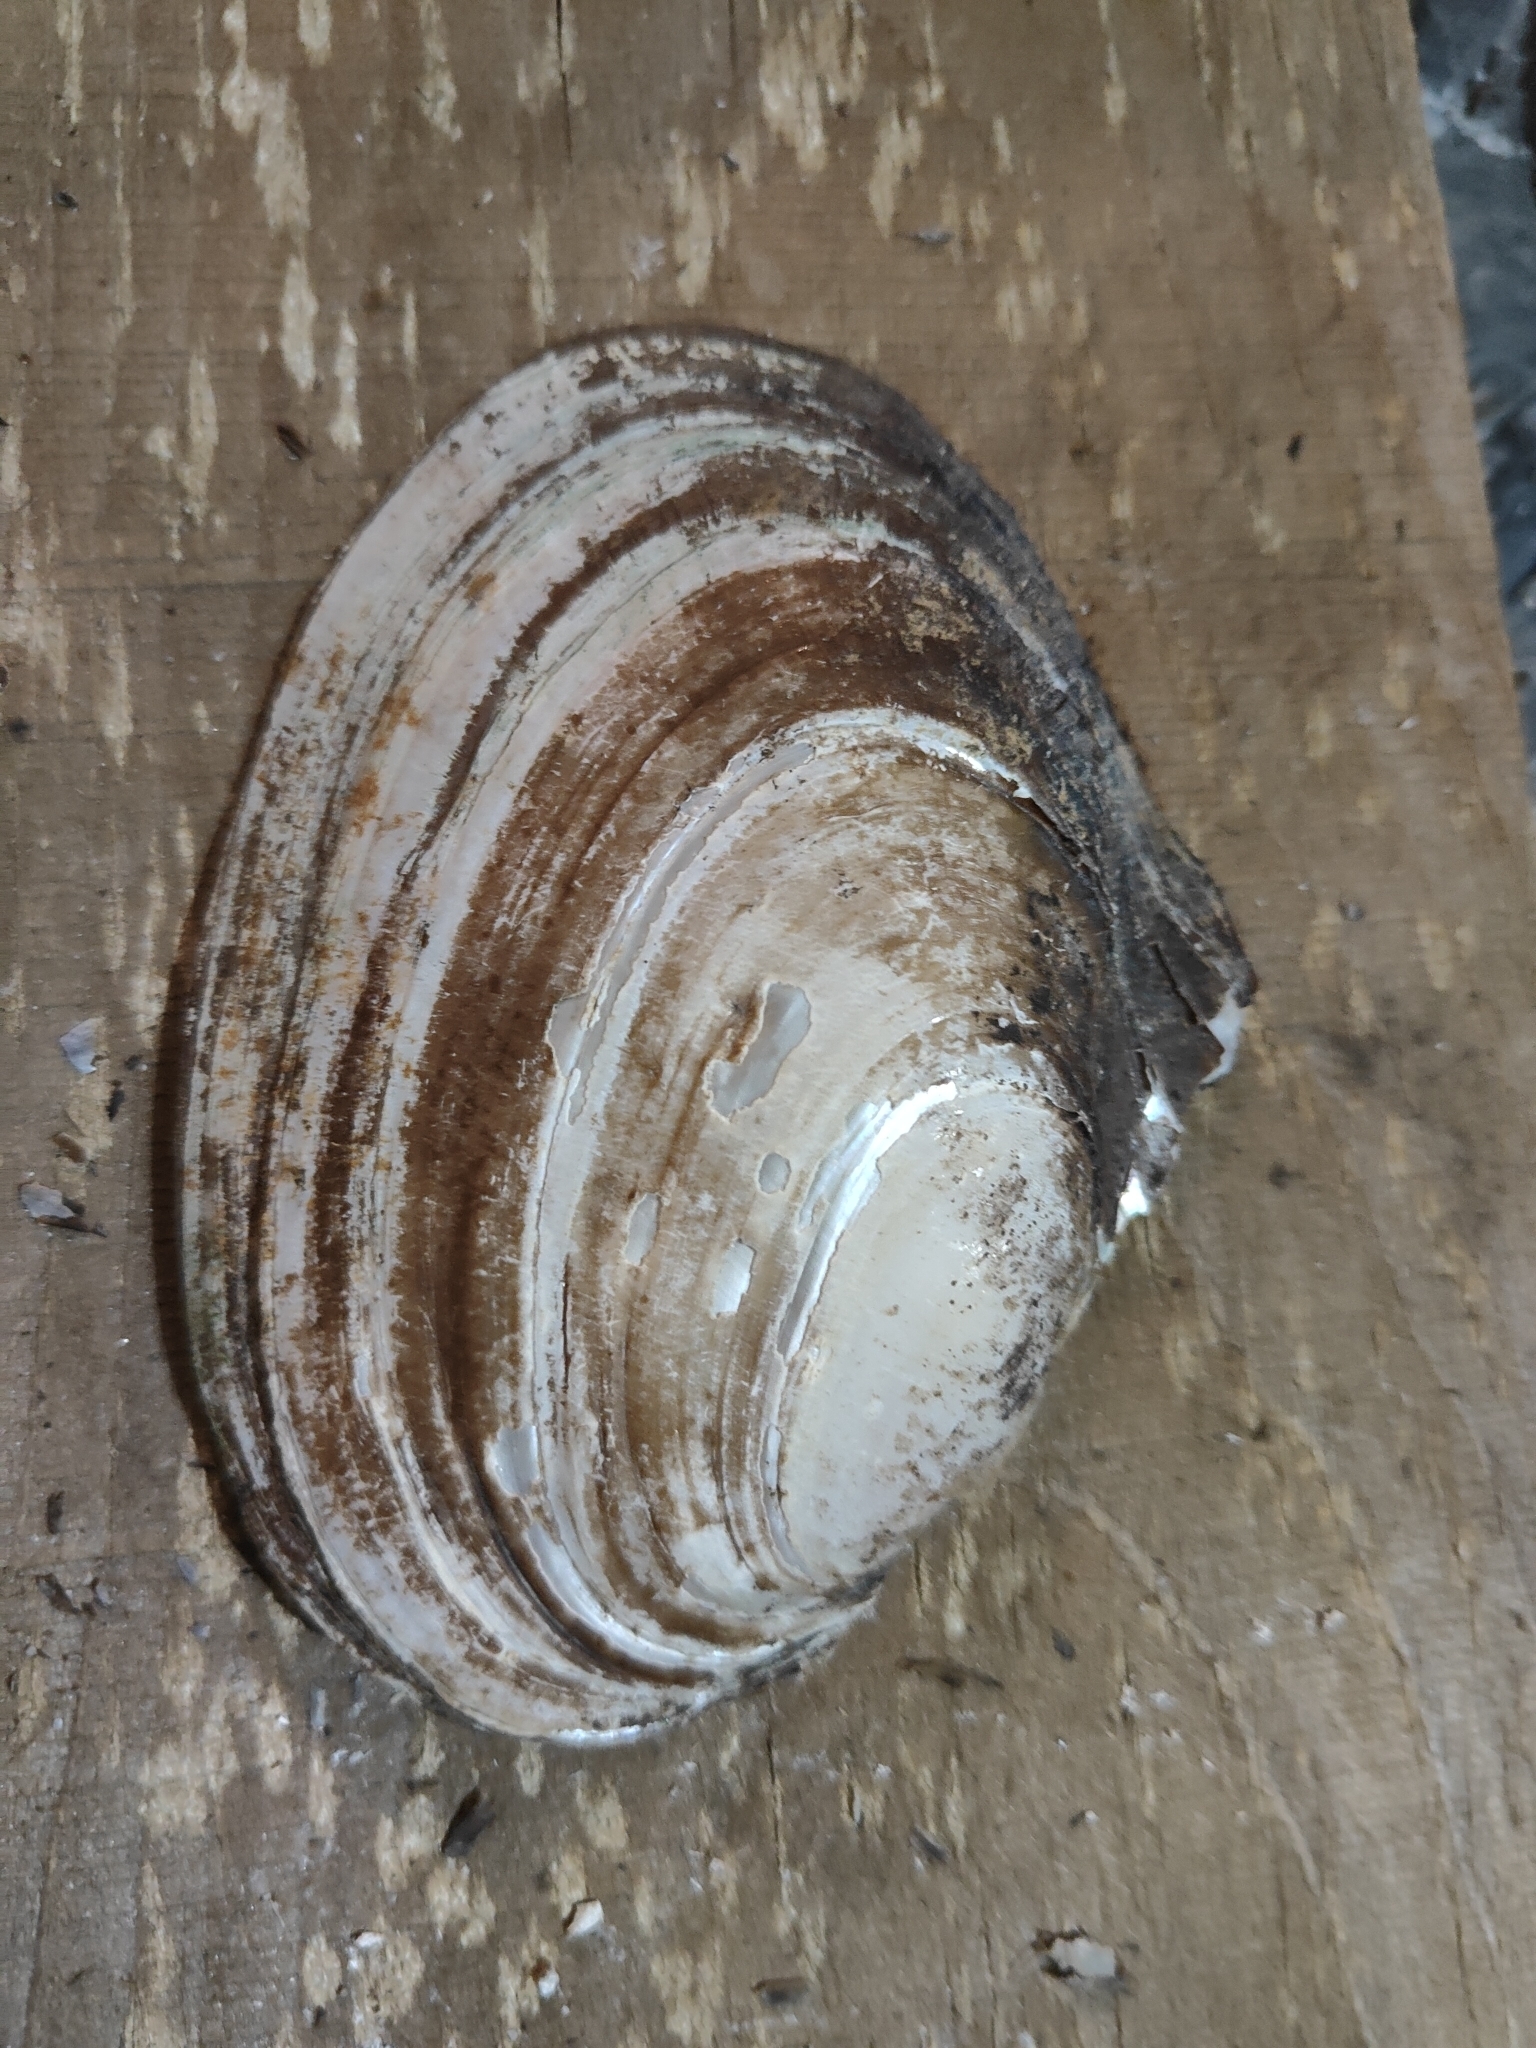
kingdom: Animalia
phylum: Mollusca
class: Bivalvia
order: Unionida
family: Unionidae
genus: Potamilus
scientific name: Potamilus ohiensis
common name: Pink papershell
